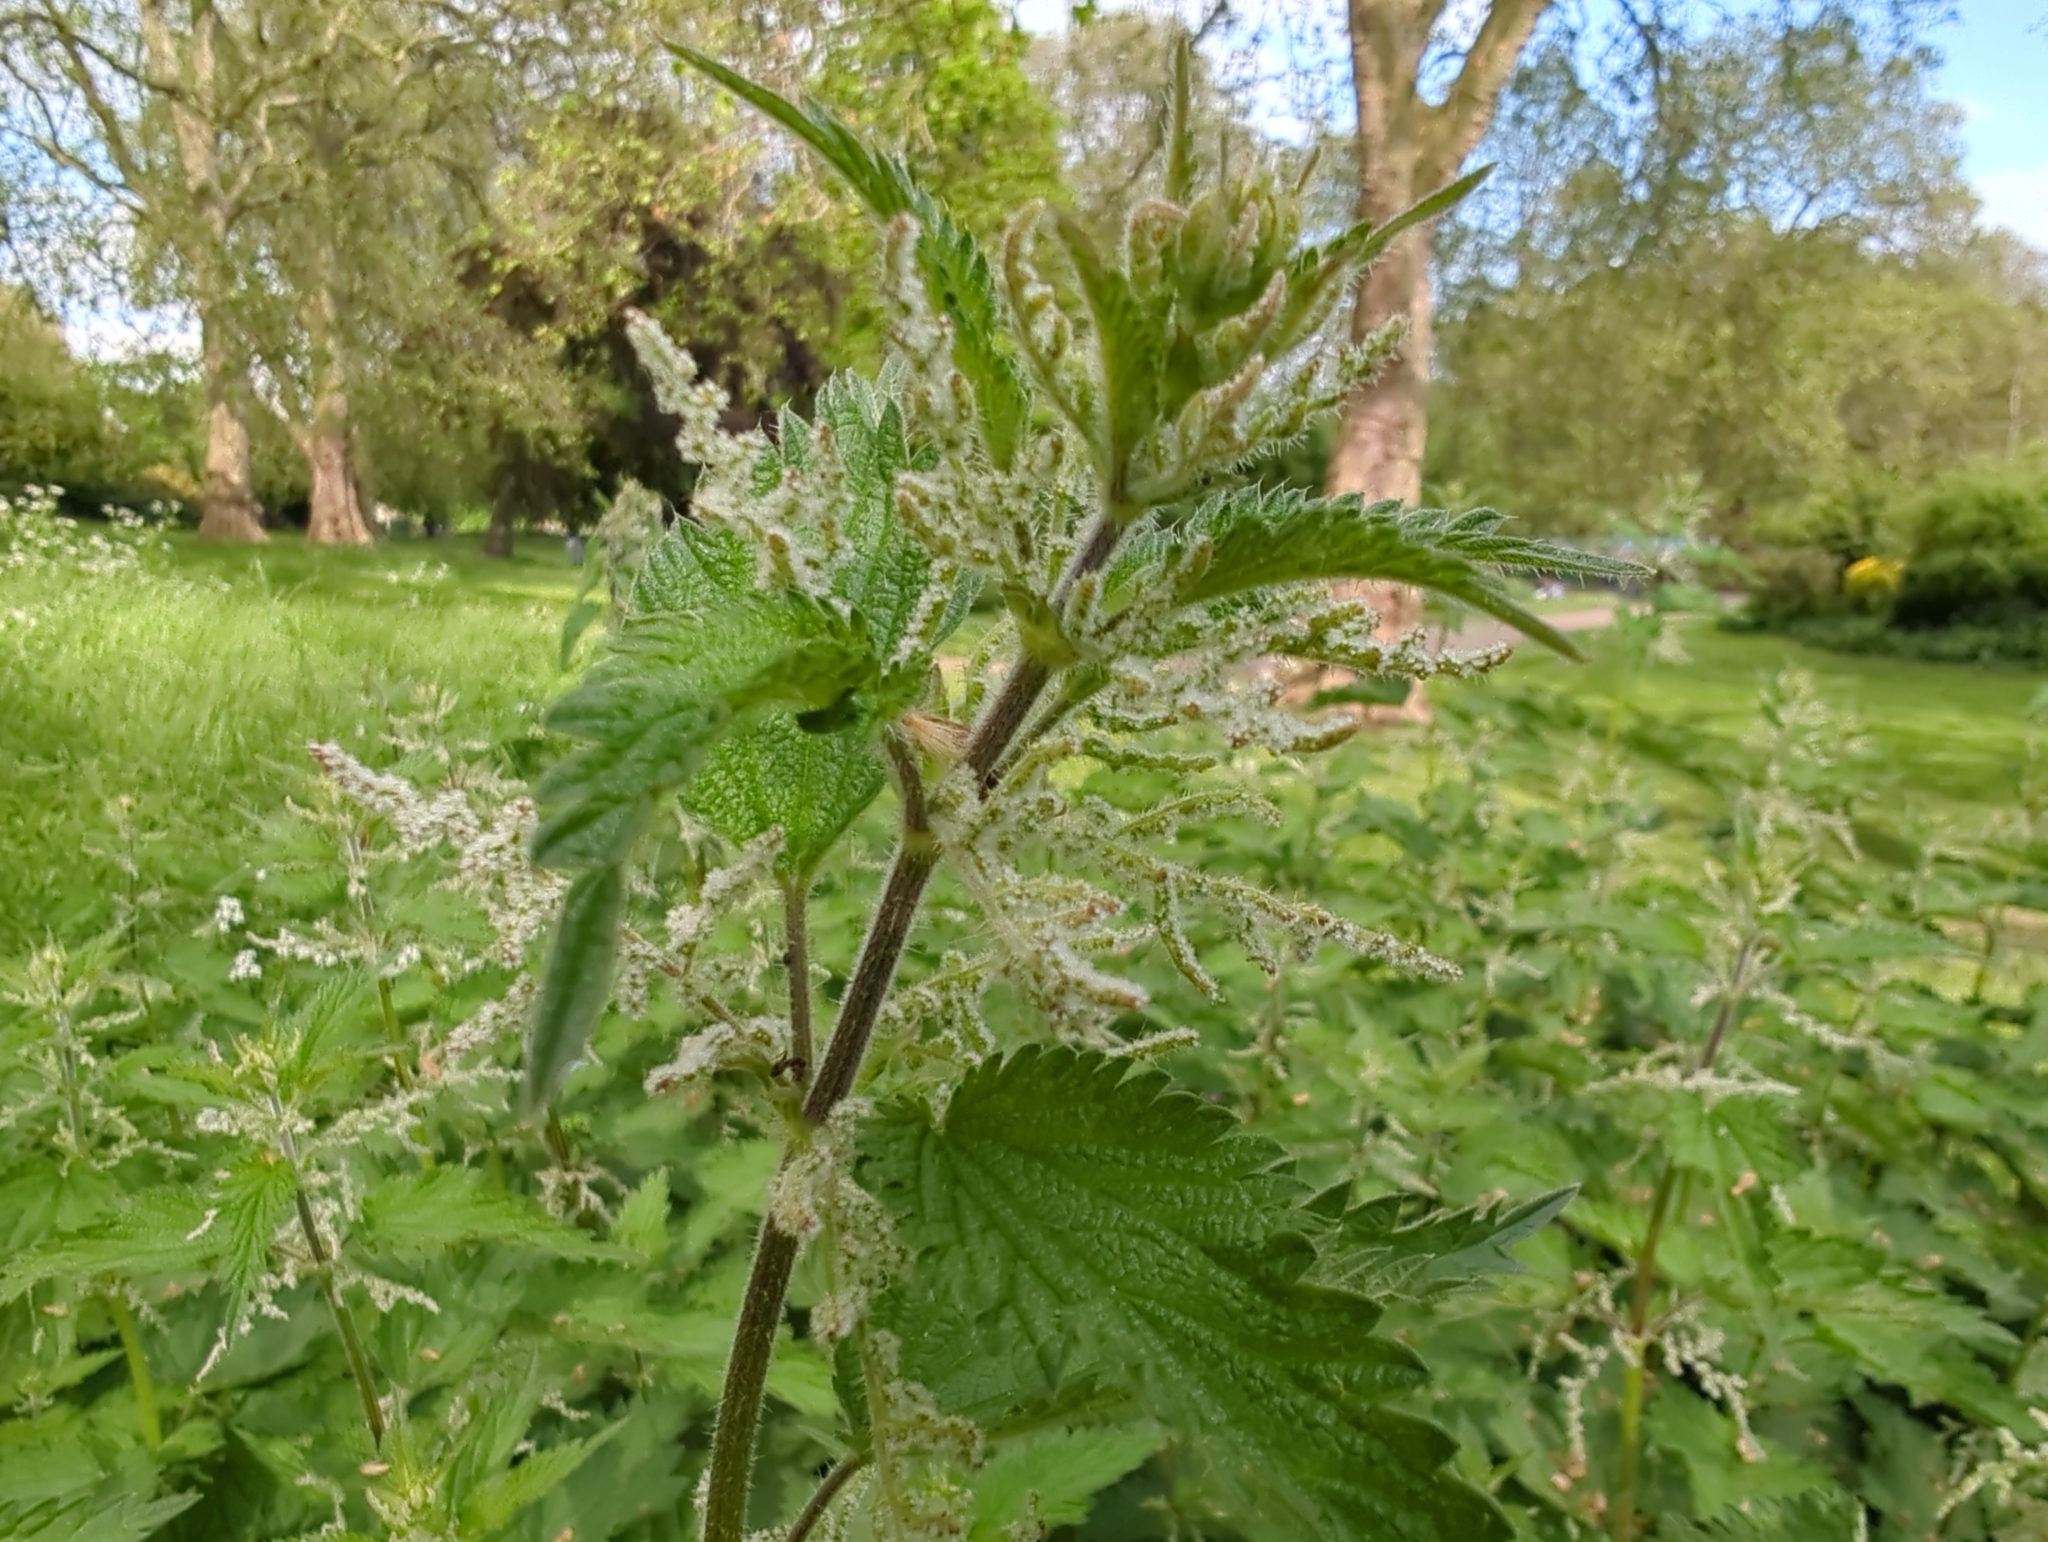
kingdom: Plantae
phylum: Tracheophyta
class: Magnoliopsida
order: Rosales
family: Urticaceae
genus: Urtica
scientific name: Urtica dioica
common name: Common nettle
